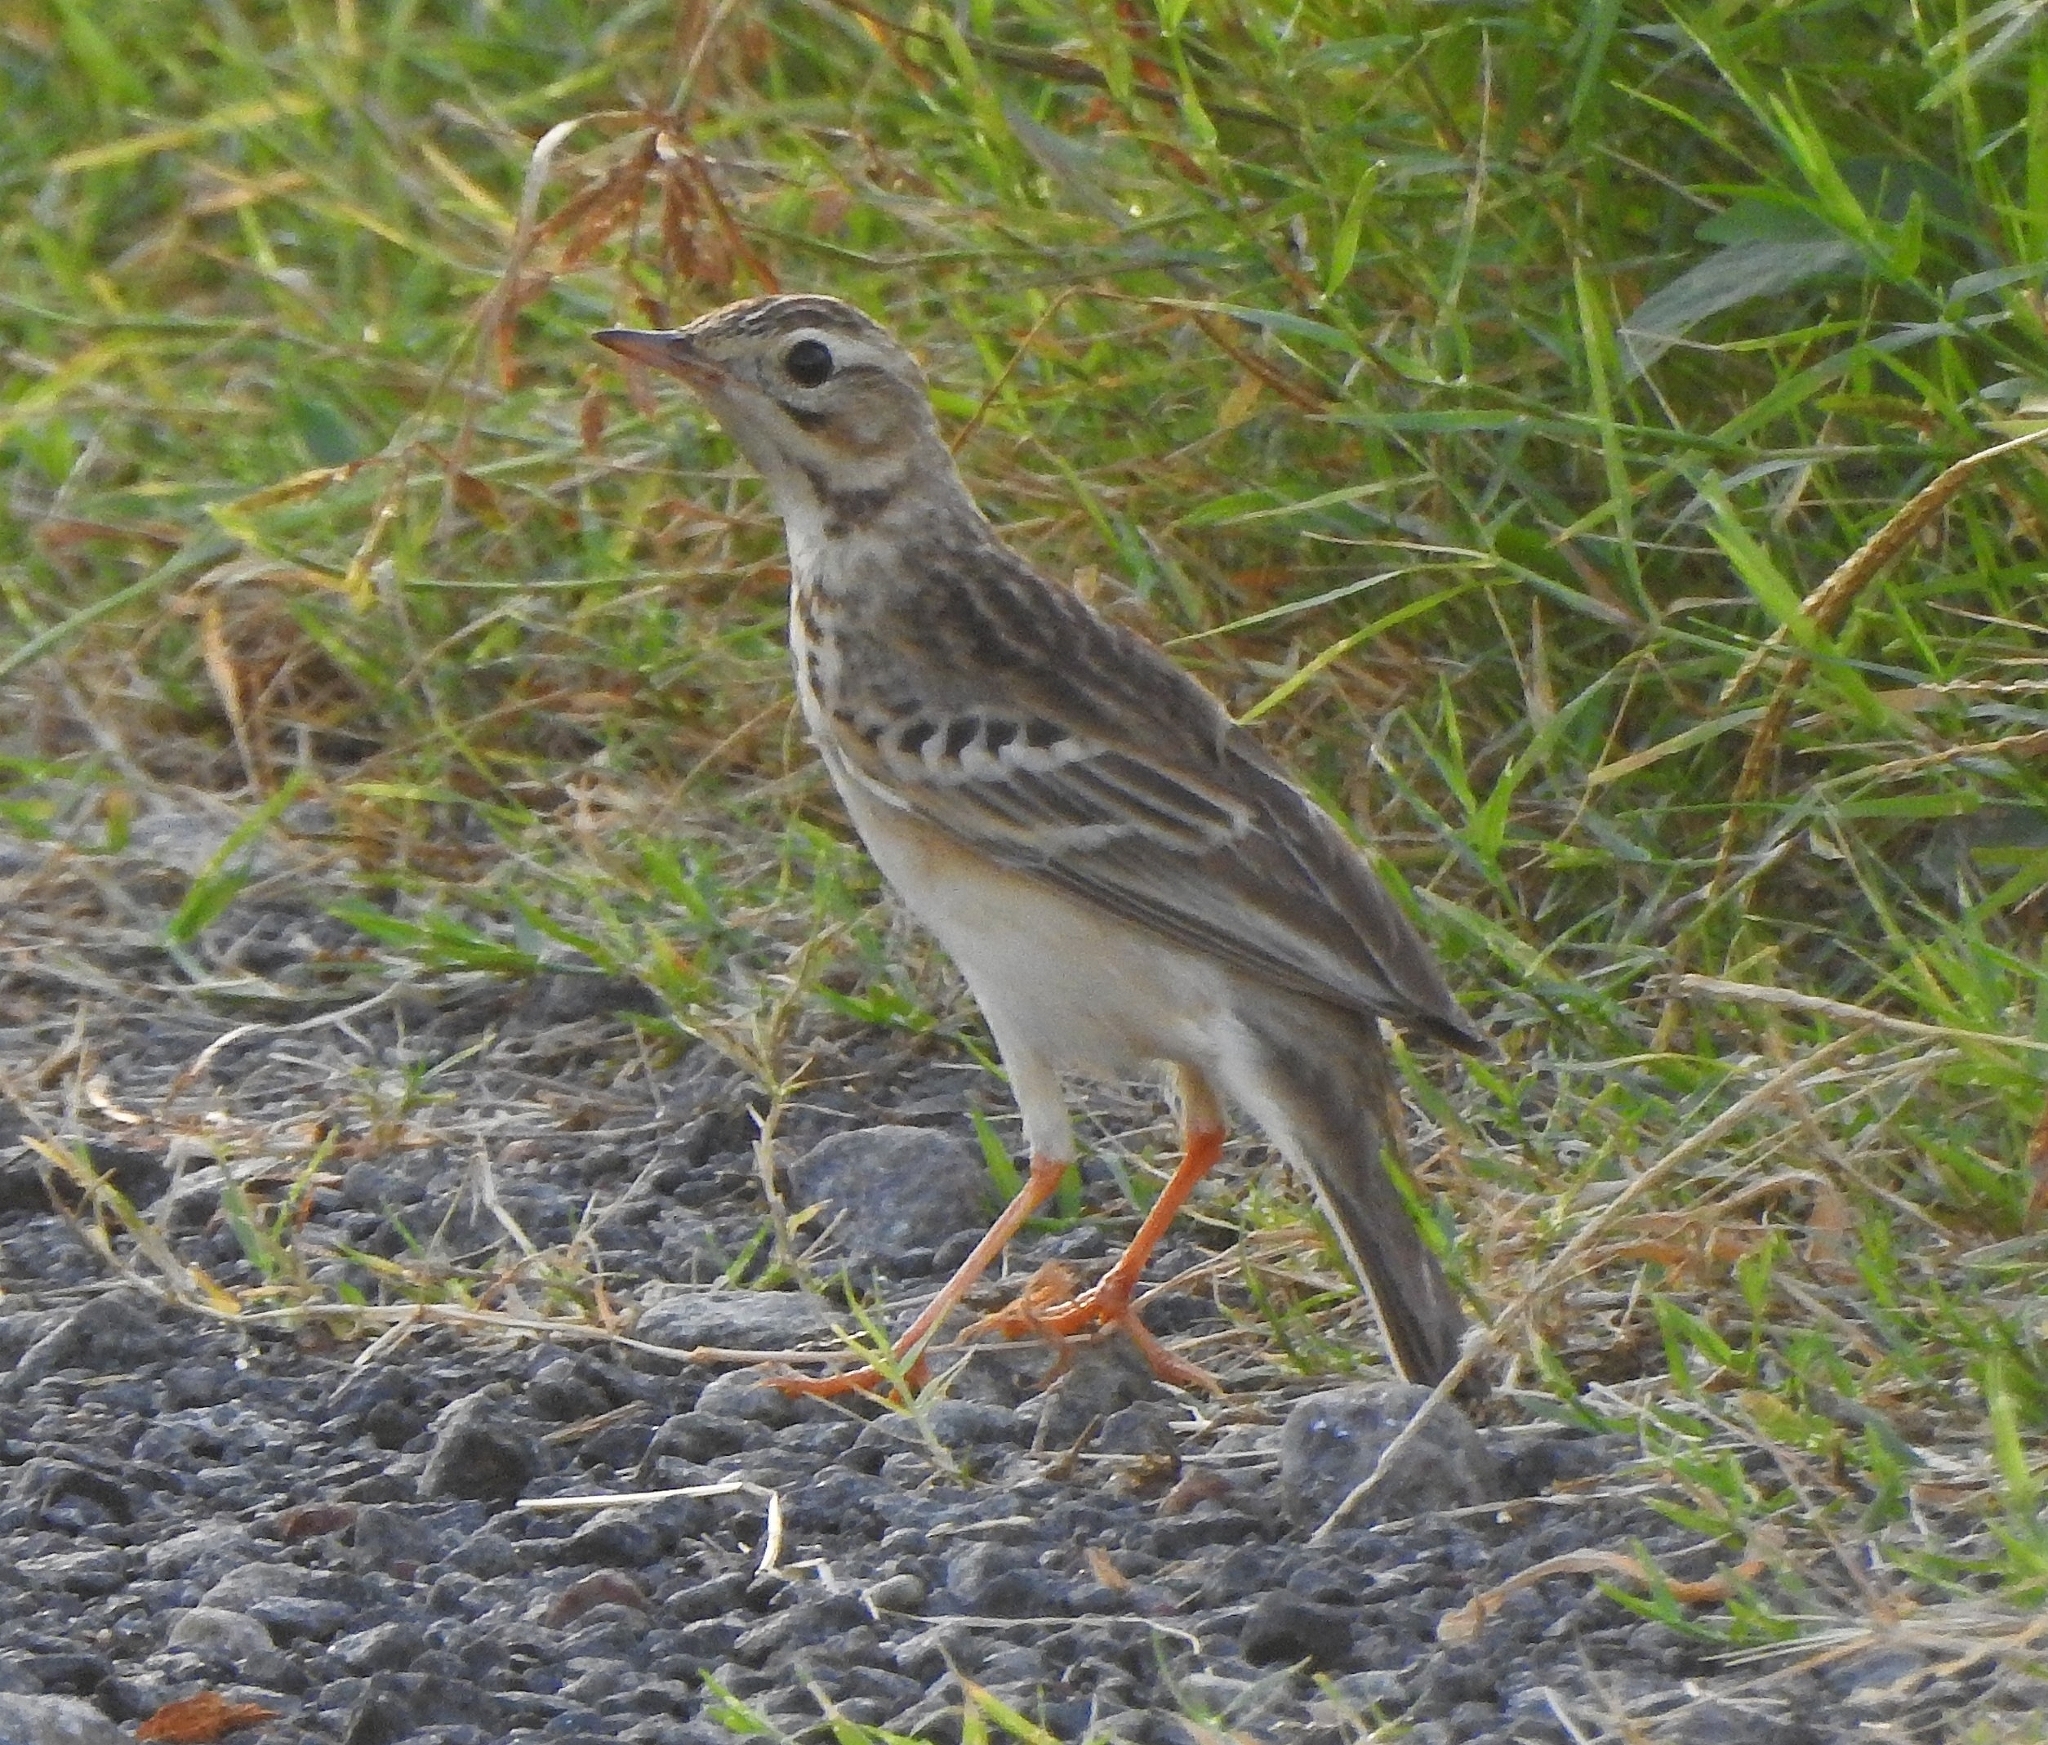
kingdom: Animalia
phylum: Chordata
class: Aves
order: Passeriformes
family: Motacillidae
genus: Anthus
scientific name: Anthus godlewskii
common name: Blyth's pipit
